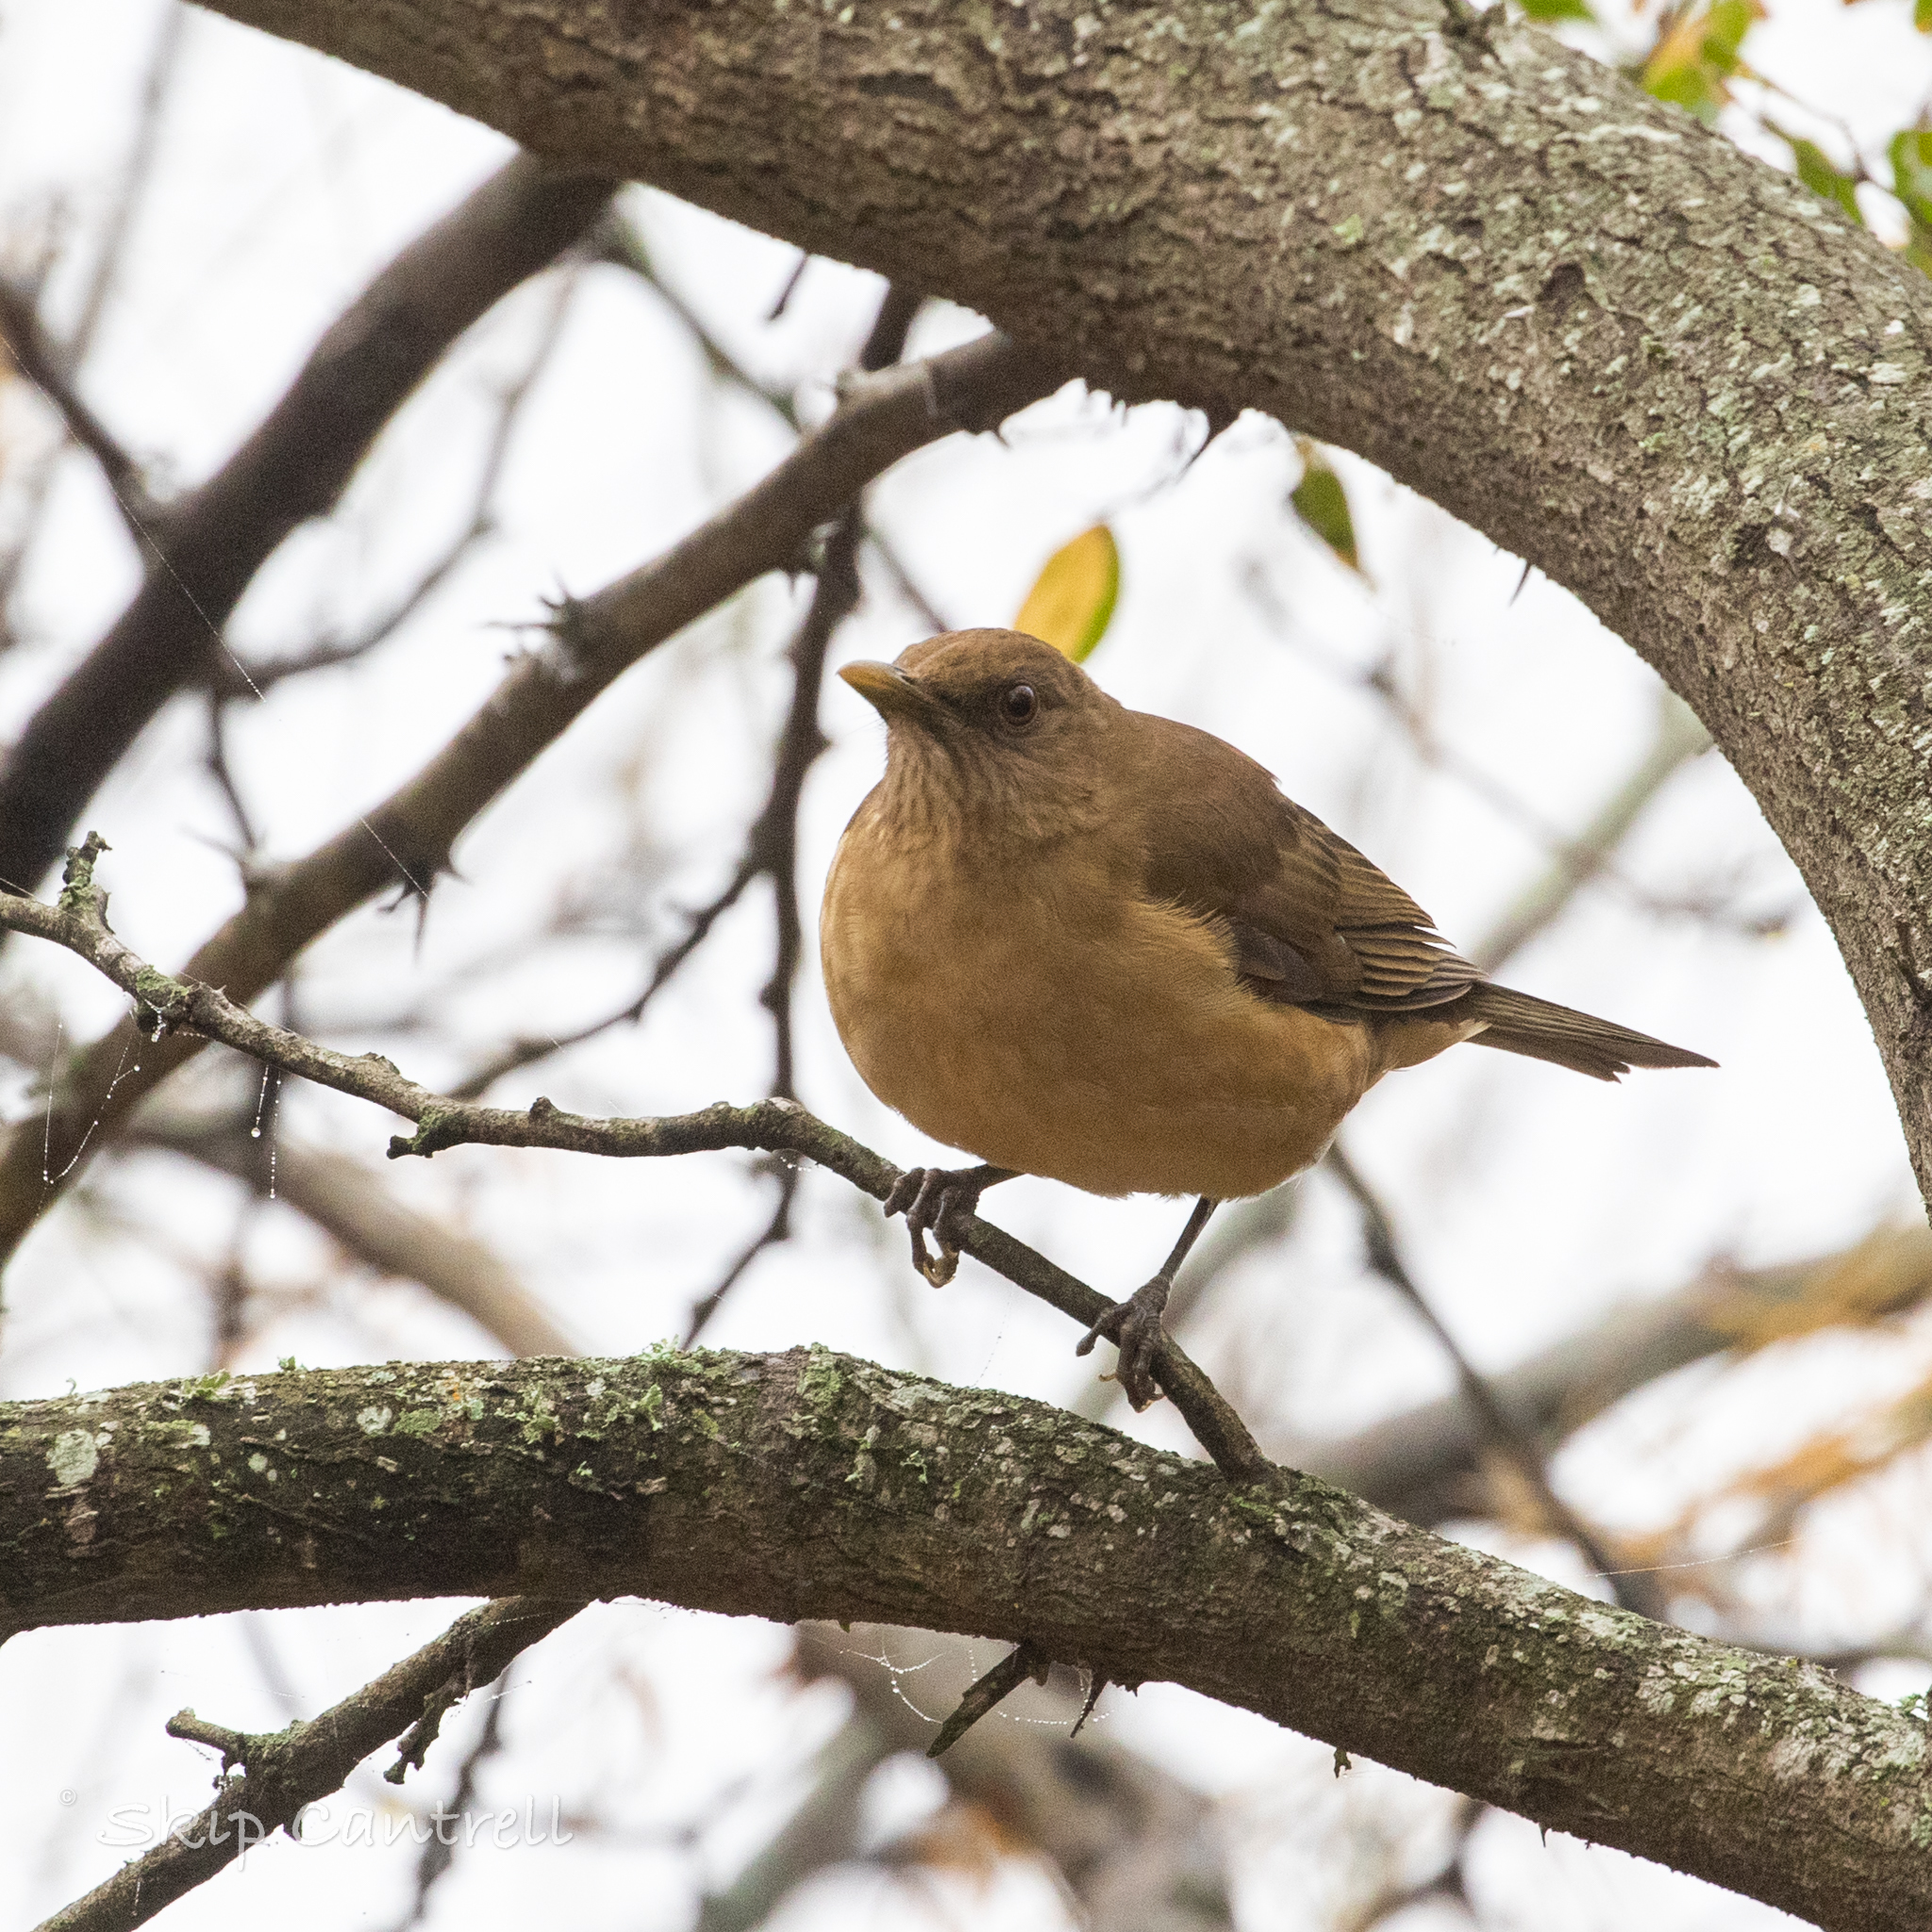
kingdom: Animalia
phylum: Chordata
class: Aves
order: Passeriformes
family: Turdidae
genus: Turdus
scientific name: Turdus grayi
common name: Clay-colored thrush
